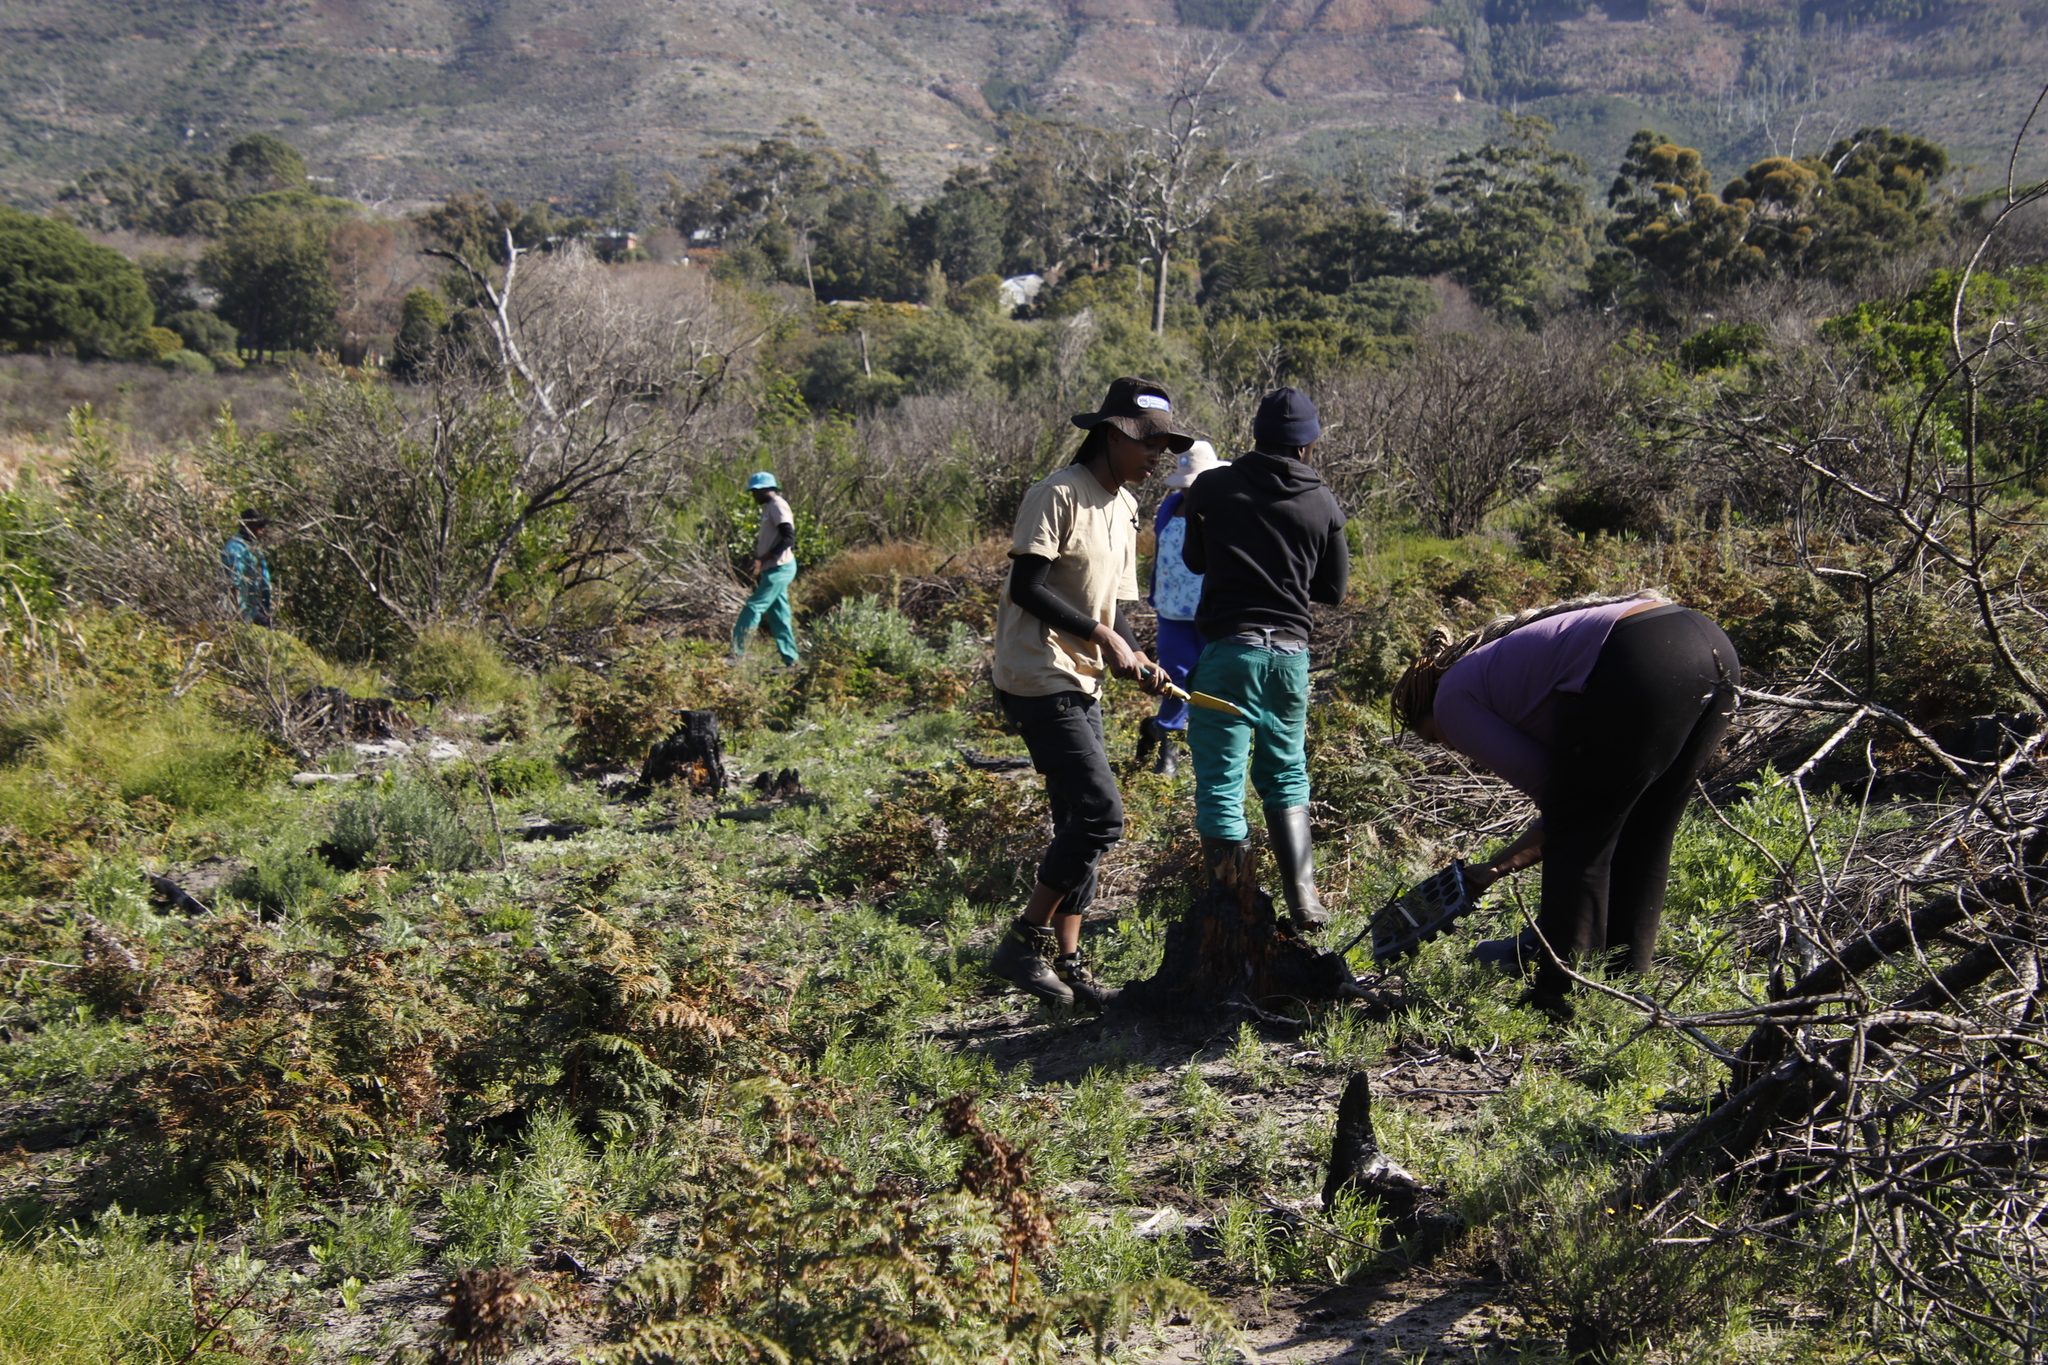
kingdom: Plantae
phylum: Tracheophyta
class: Polypodiopsida
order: Polypodiales
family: Dennstaedtiaceae
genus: Pteridium
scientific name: Pteridium aquilinum
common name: Bracken
